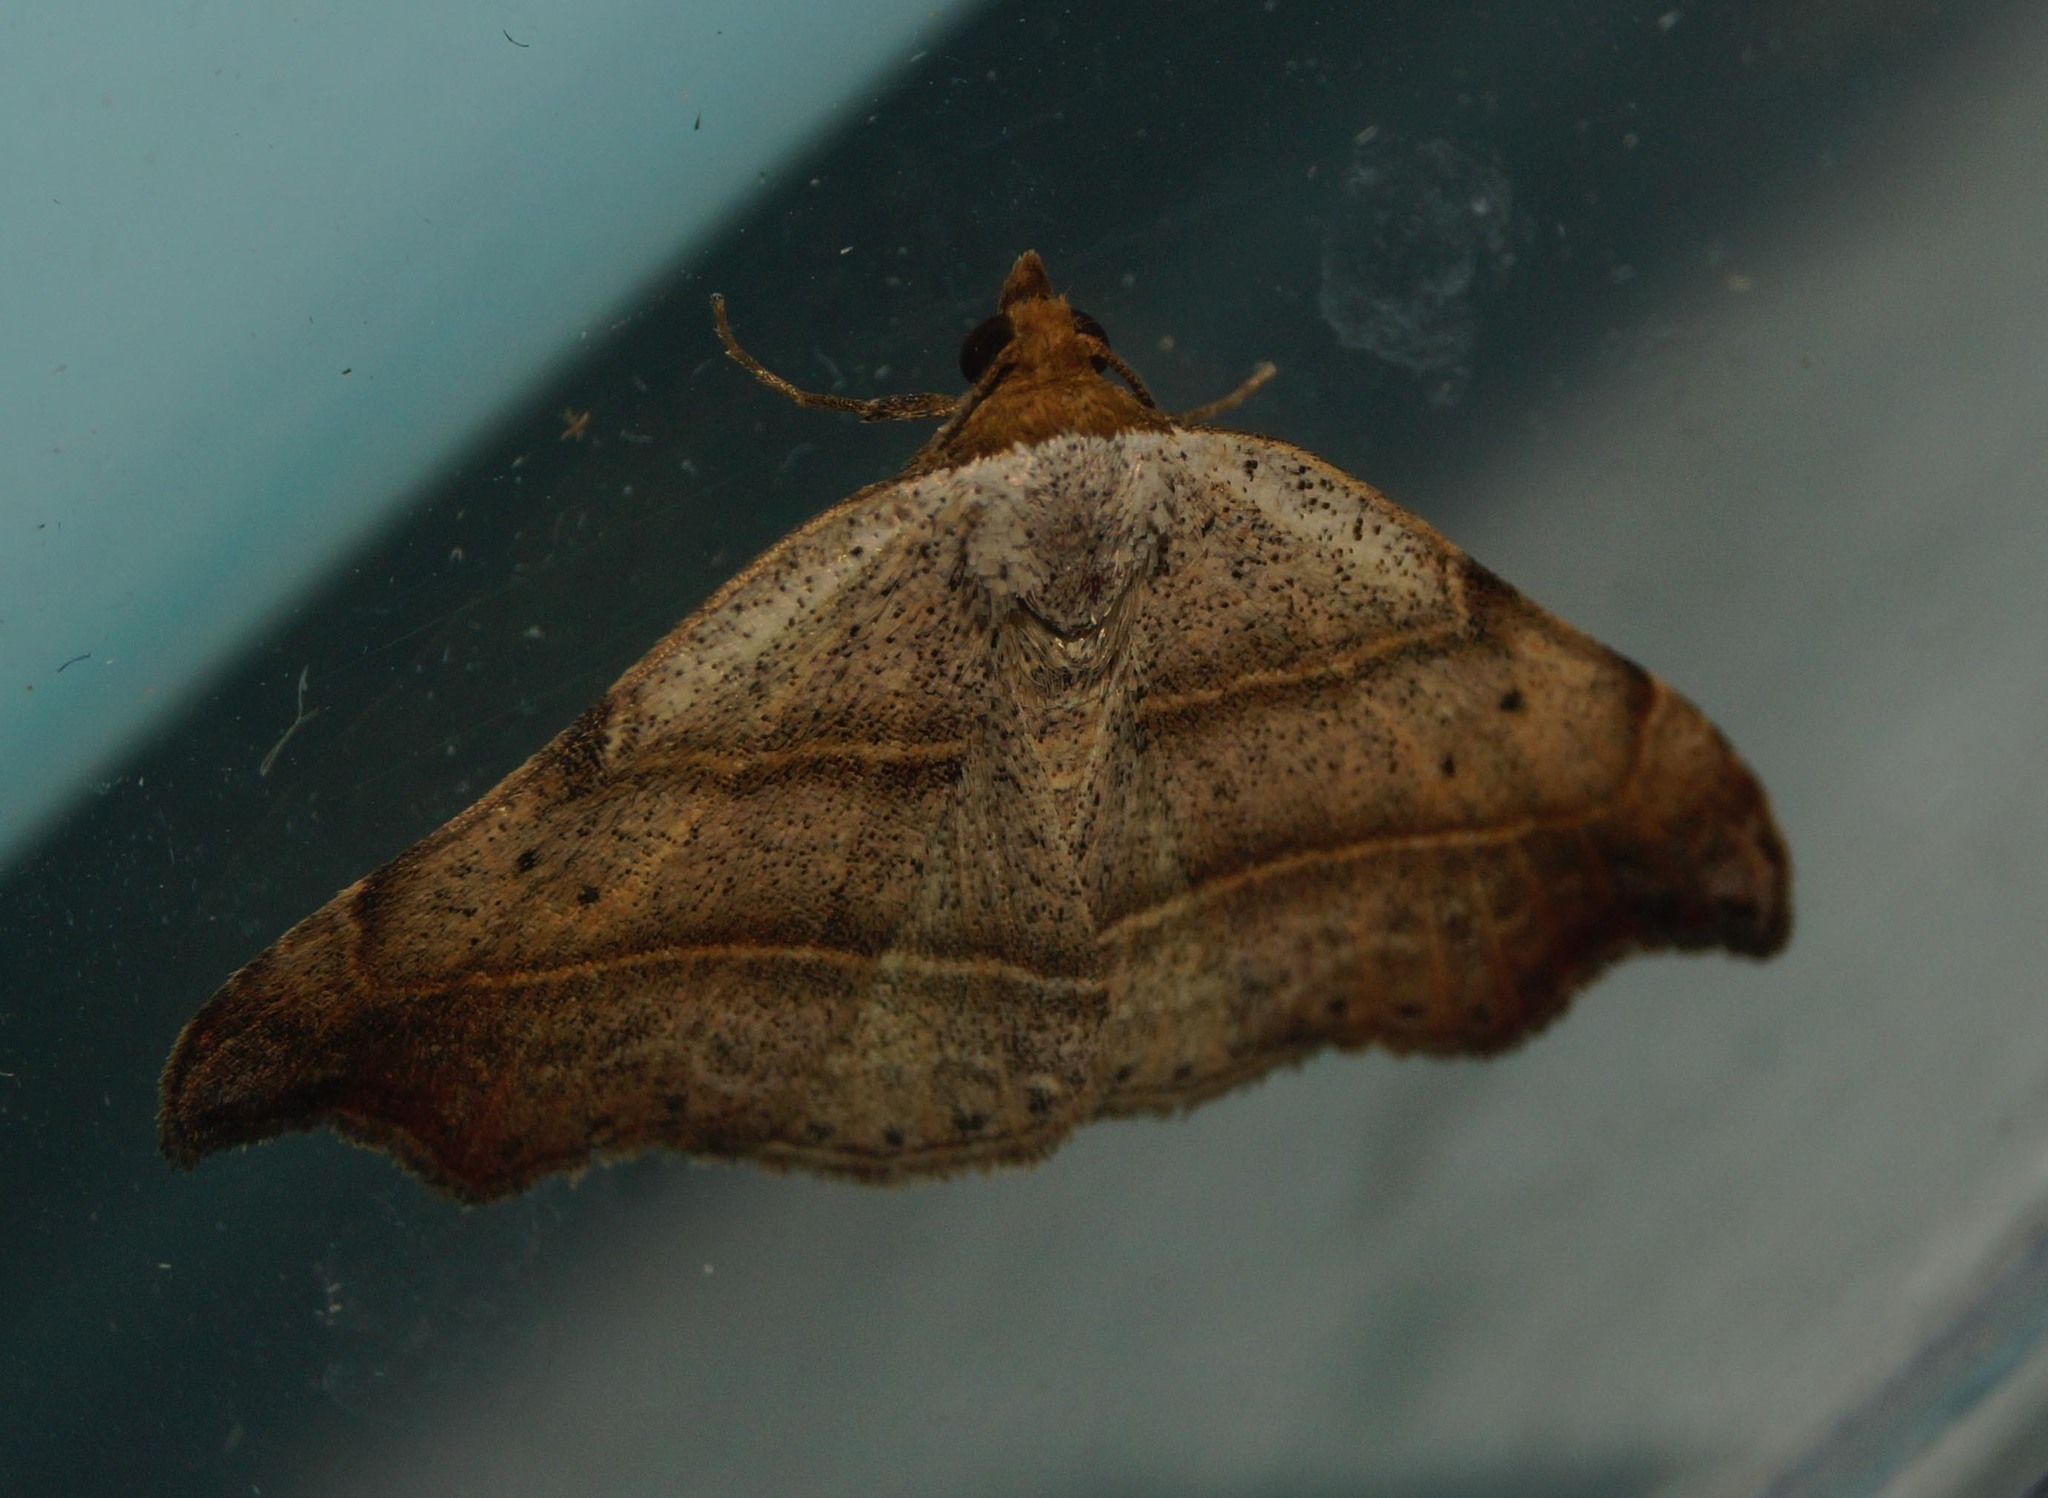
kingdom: Animalia
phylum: Arthropoda
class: Insecta
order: Lepidoptera
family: Erebidae
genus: Laspeyria
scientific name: Laspeyria flexula
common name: Beautiful hook-tip
